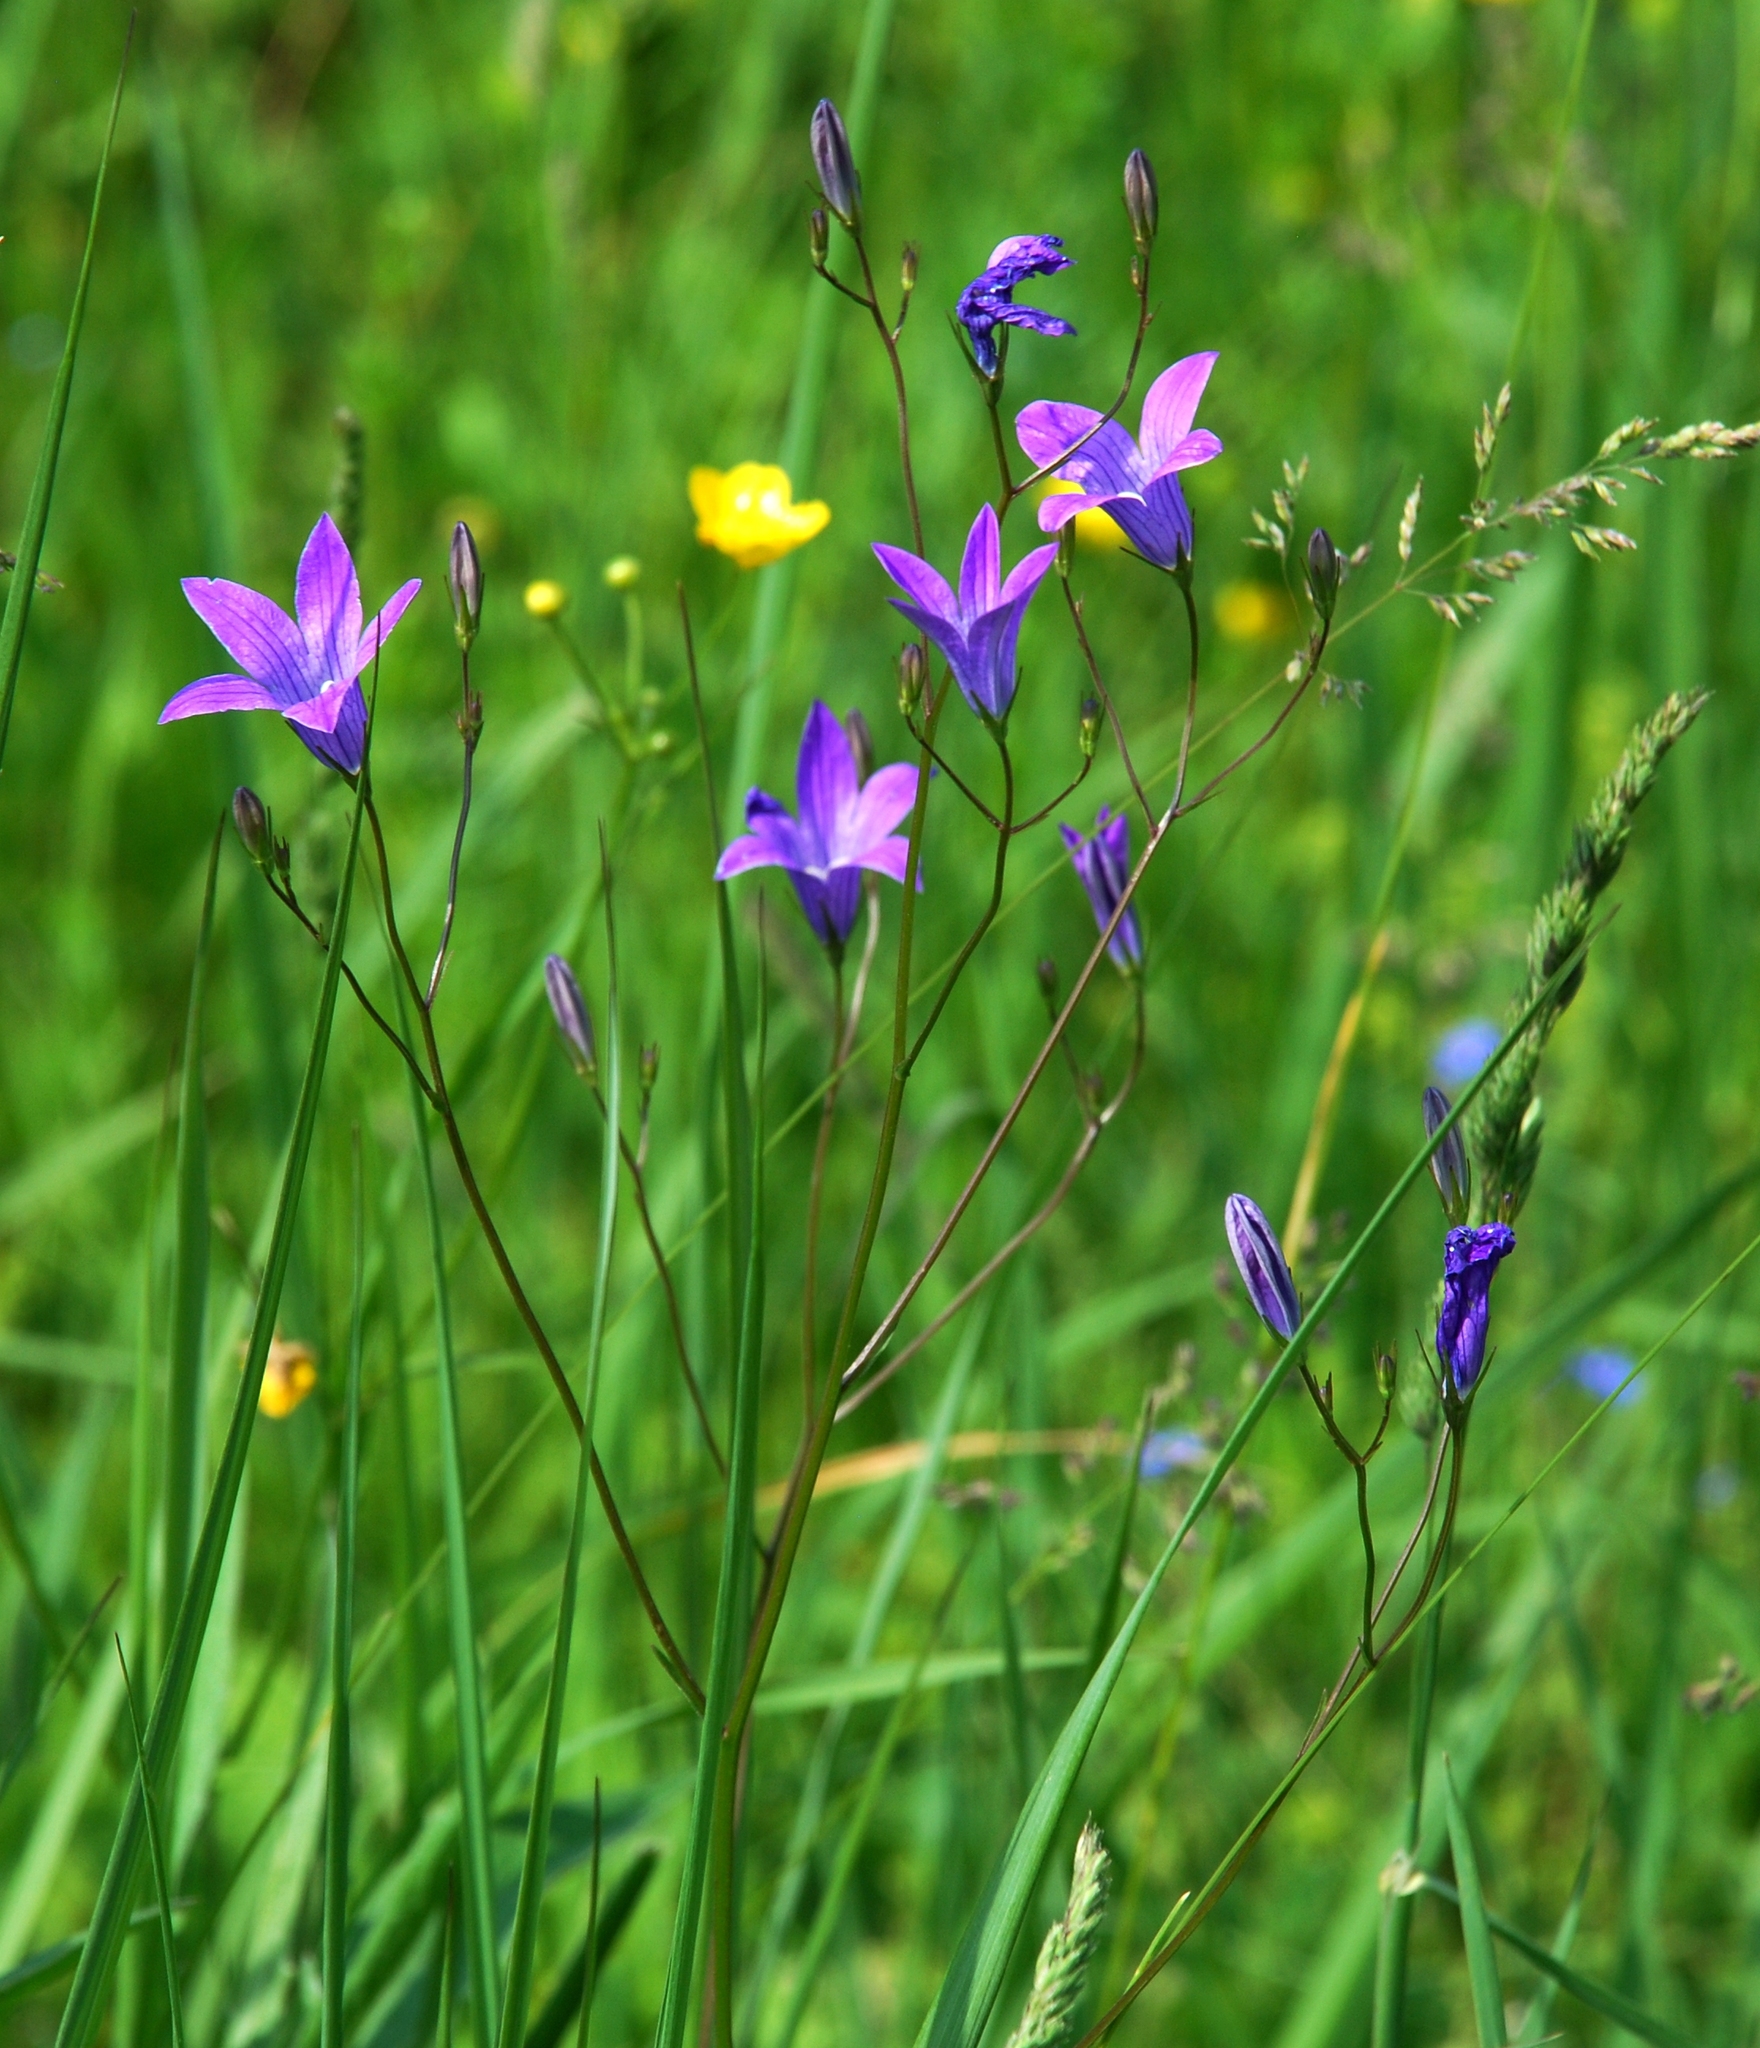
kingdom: Plantae
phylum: Tracheophyta
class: Magnoliopsida
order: Asterales
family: Campanulaceae
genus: Campanula
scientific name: Campanula patula
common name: Spreading bellflower
